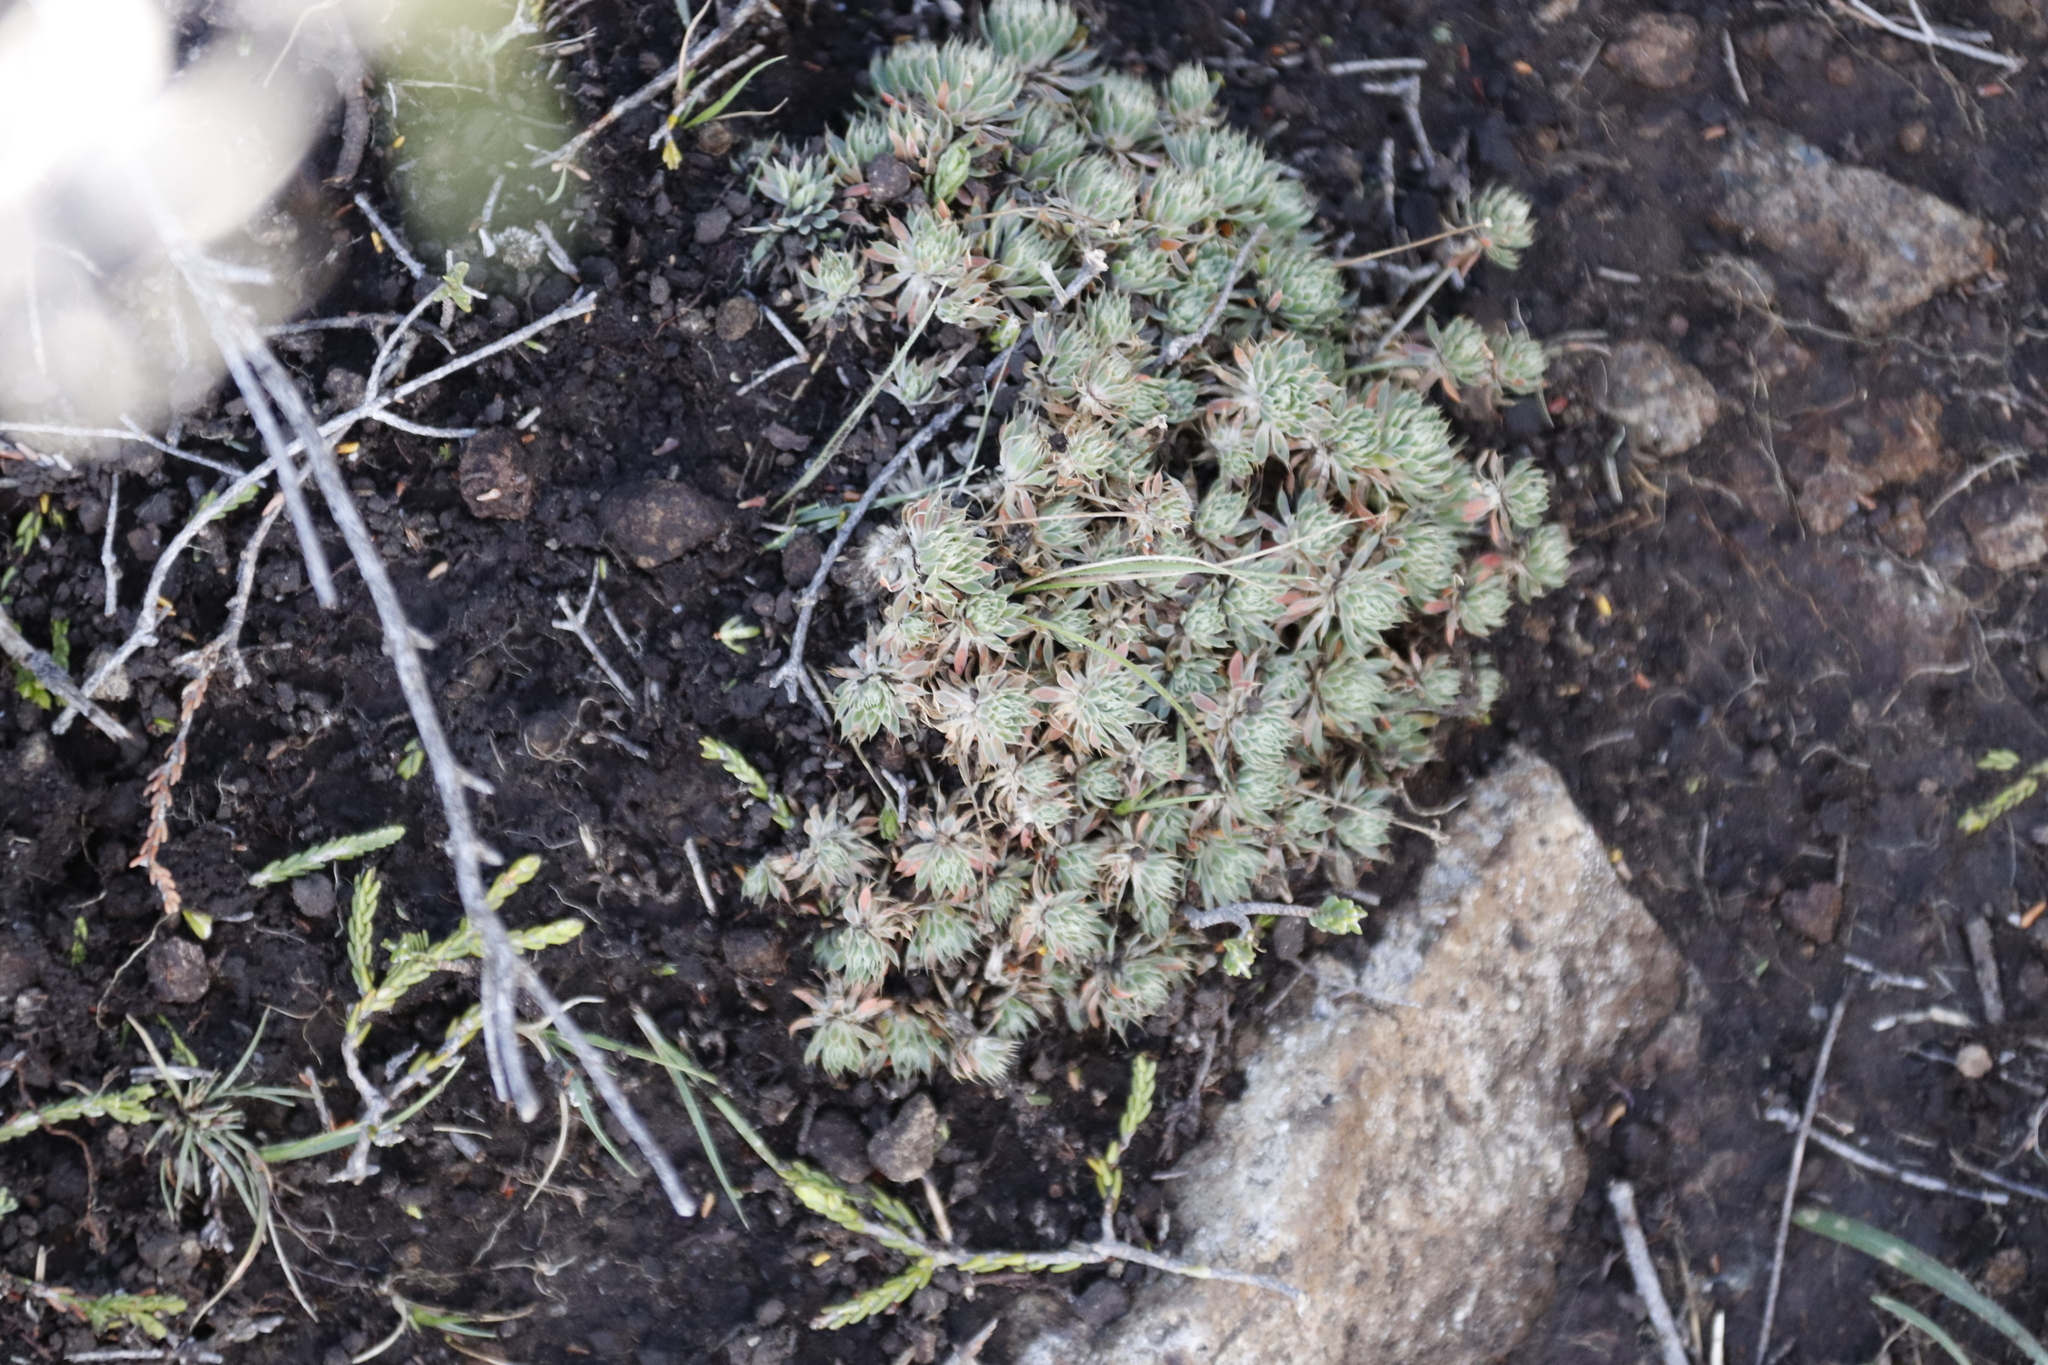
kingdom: Plantae
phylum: Tracheophyta
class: Magnoliopsida
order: Caryophyllales
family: Molluginaceae
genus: Psammotropha
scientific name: Psammotropha mucronata
